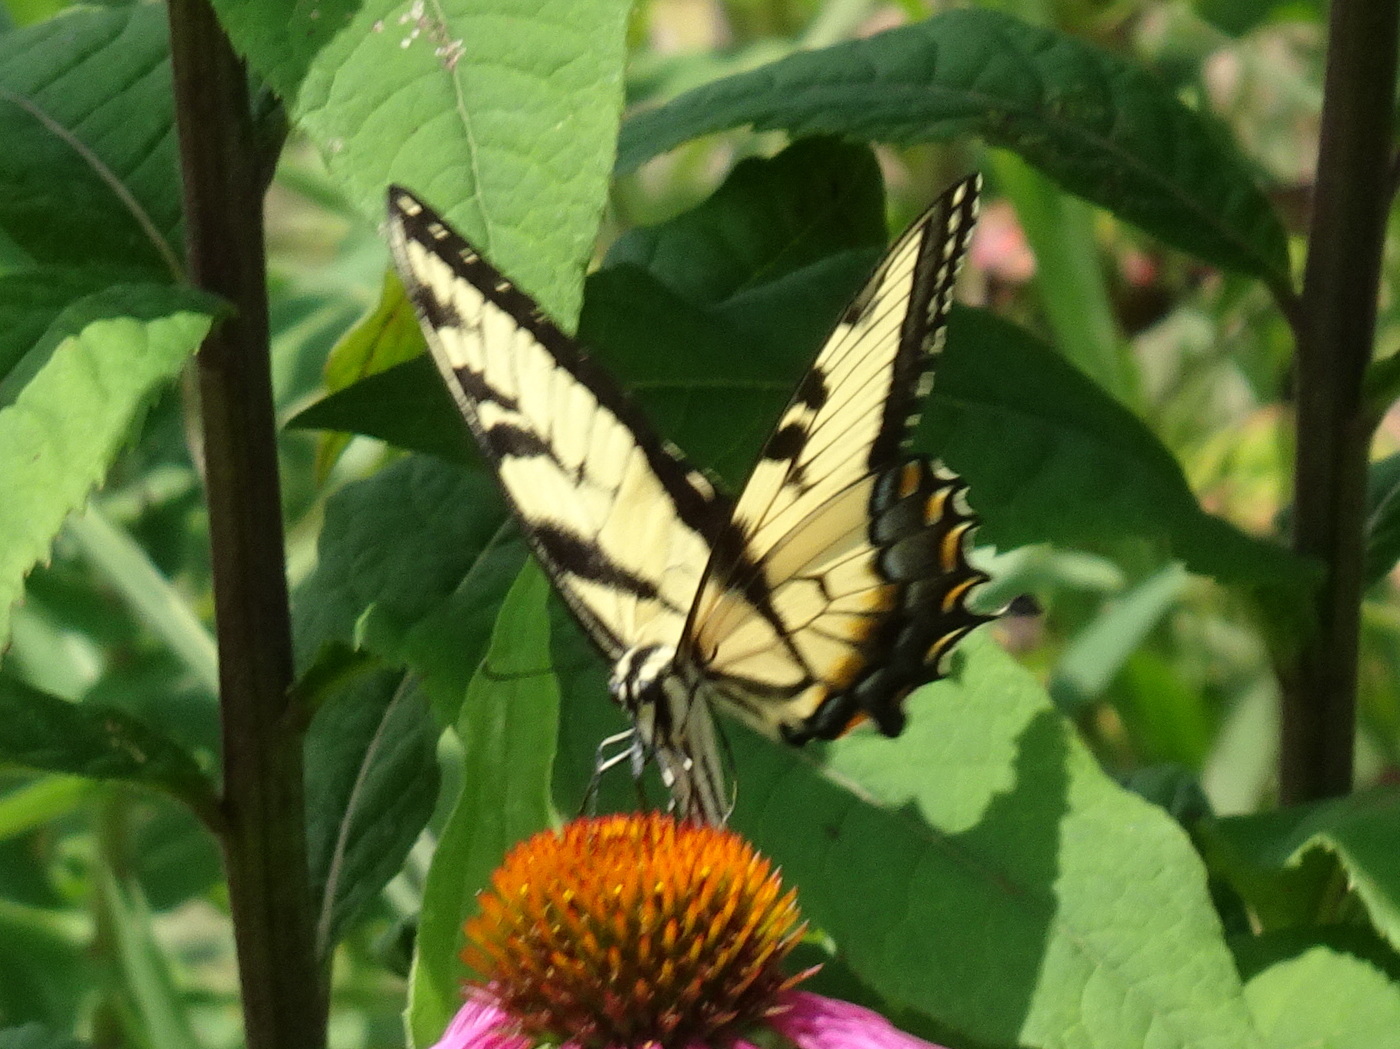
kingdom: Animalia
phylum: Arthropoda
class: Insecta
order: Lepidoptera
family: Papilionidae
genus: Papilio
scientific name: Papilio glaucus
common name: Tiger swallowtail
